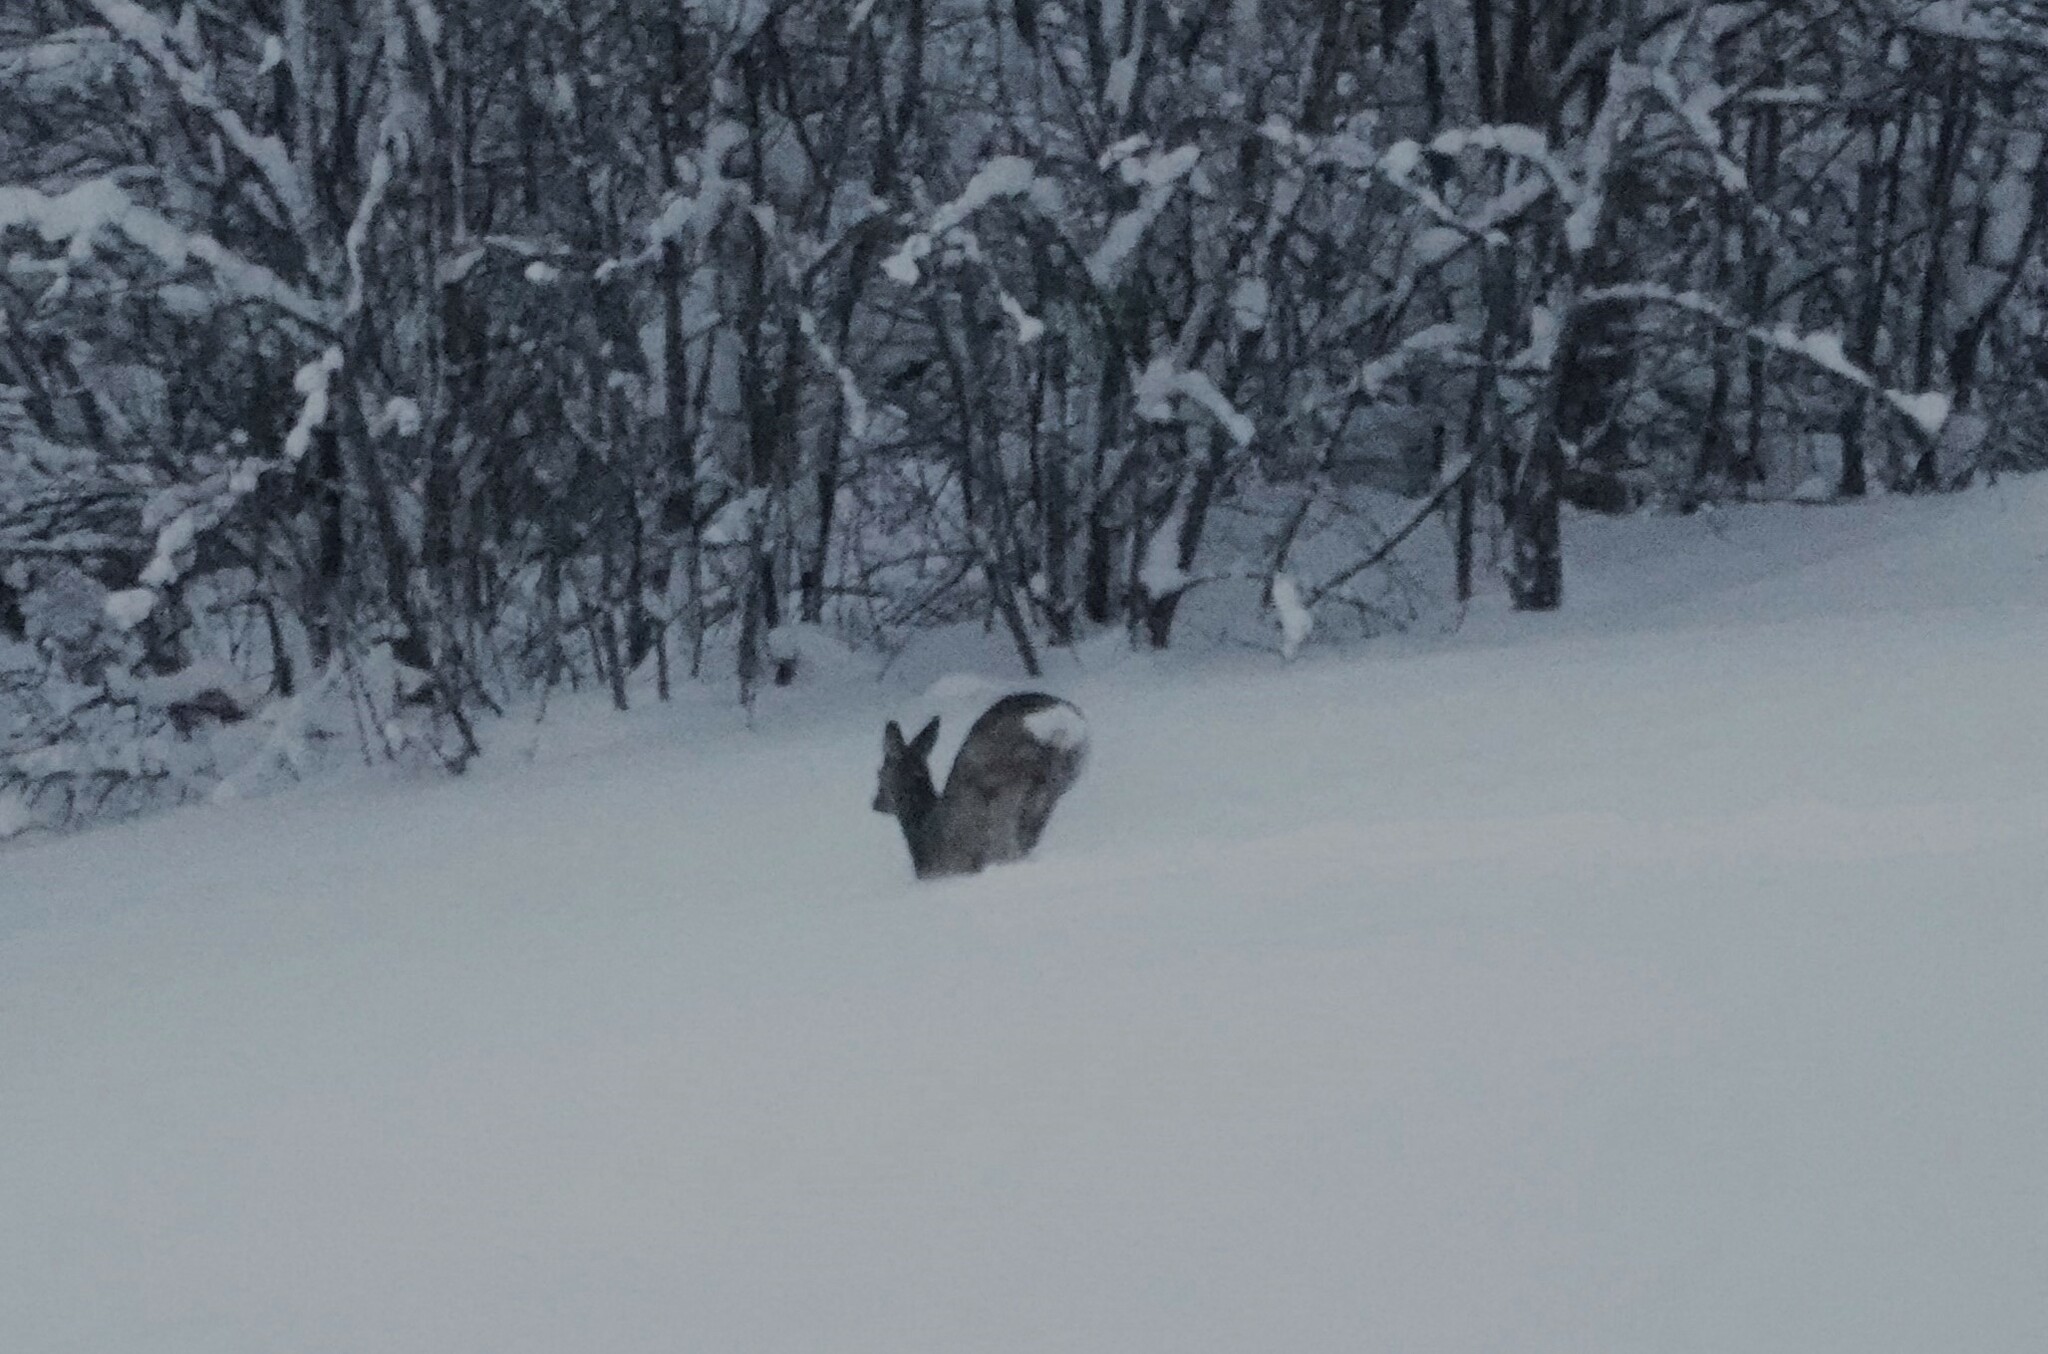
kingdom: Animalia
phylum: Chordata
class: Mammalia
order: Artiodactyla
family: Cervidae
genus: Capreolus
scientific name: Capreolus capreolus
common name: Western roe deer
